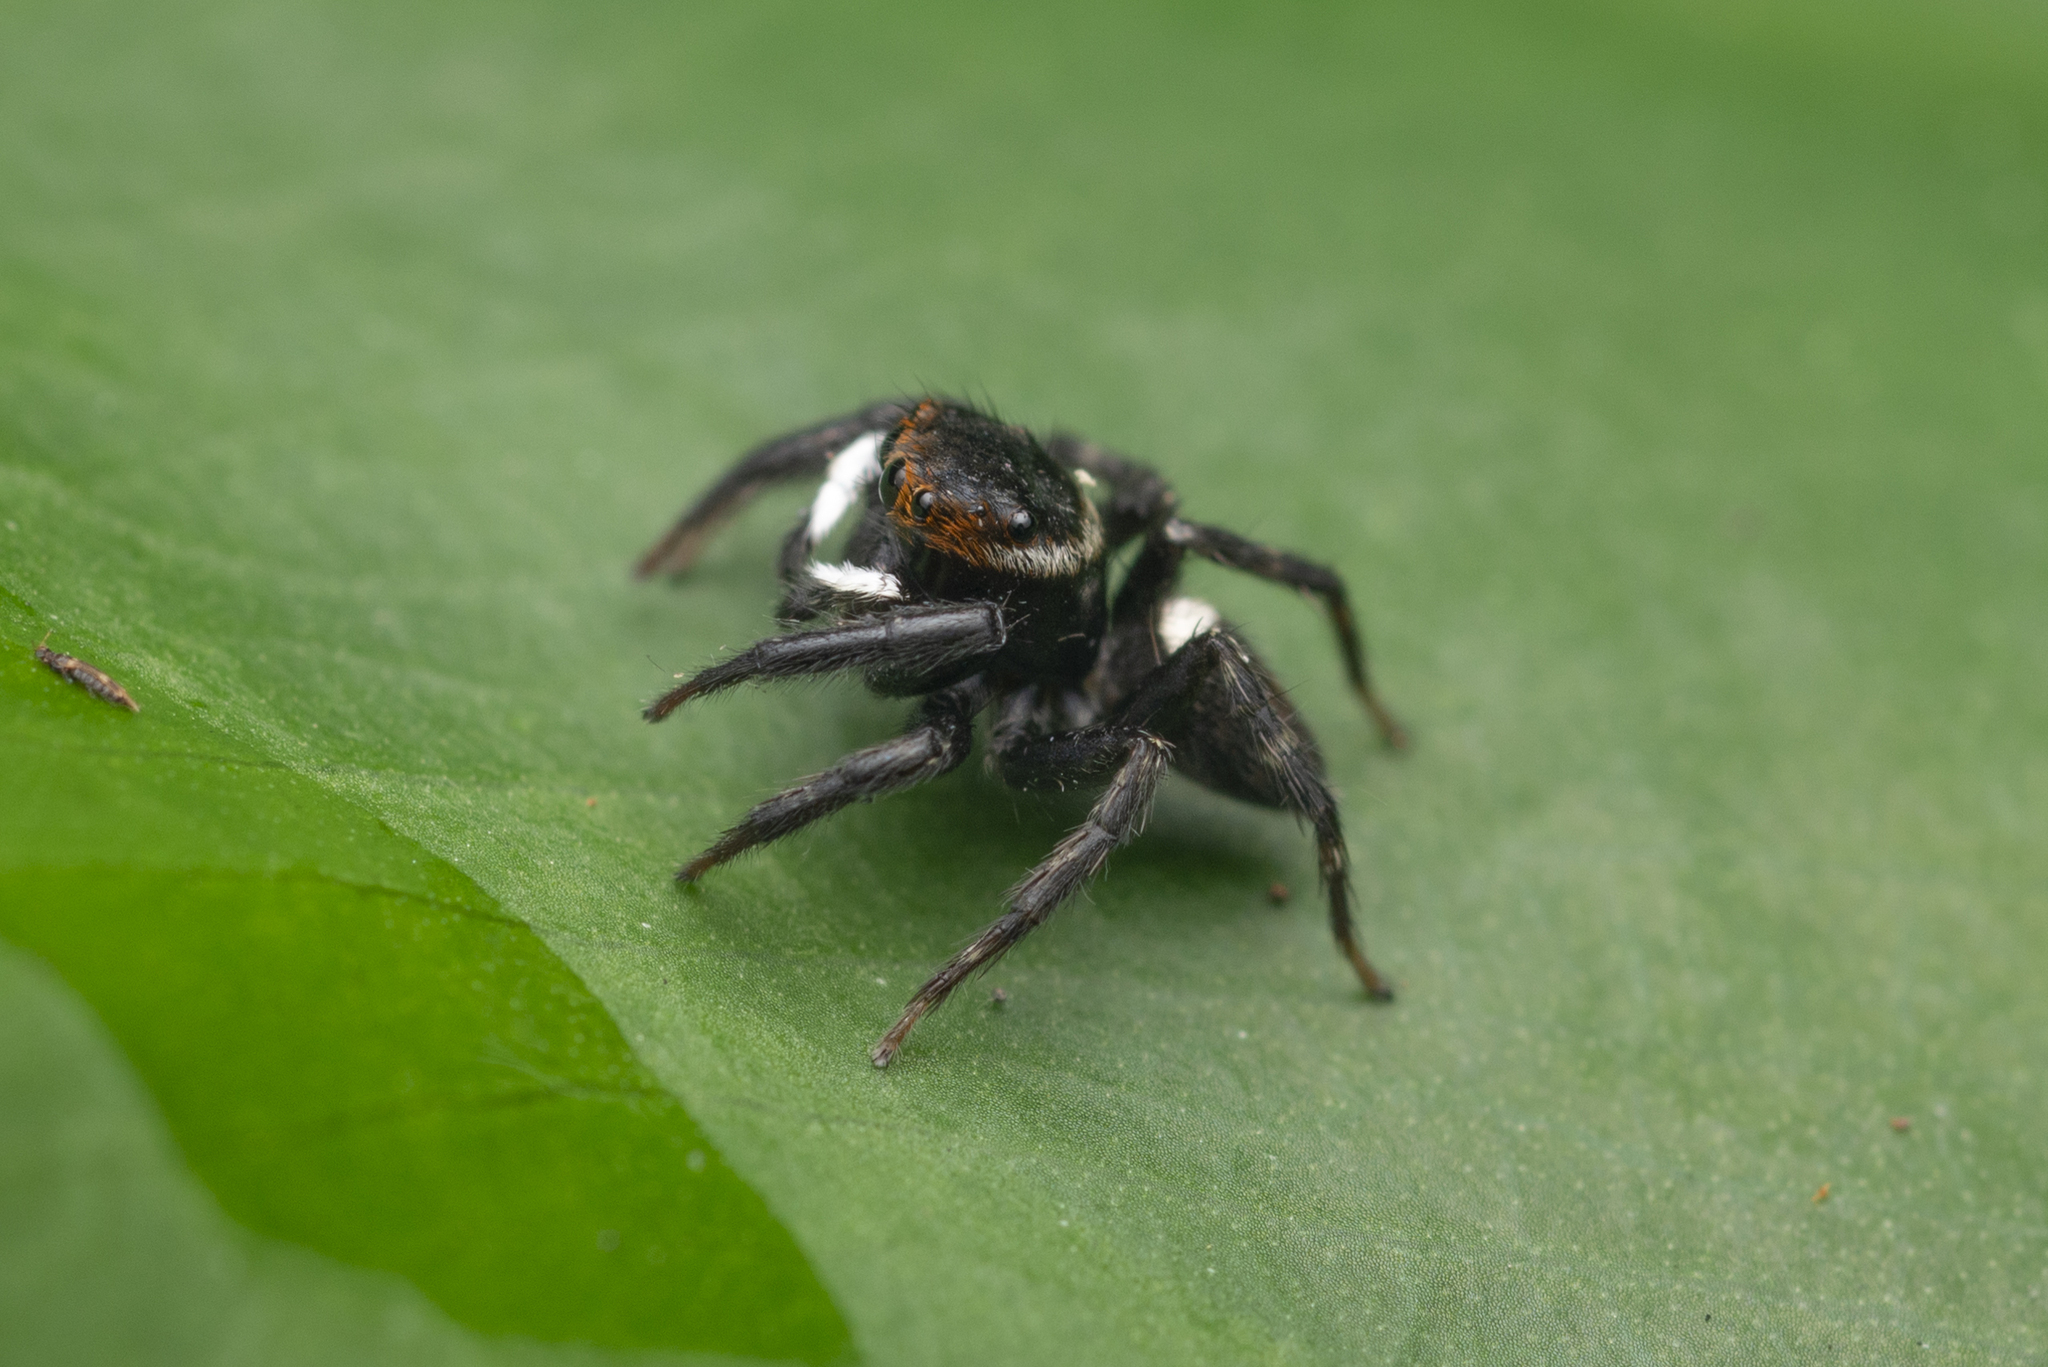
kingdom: Animalia
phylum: Arthropoda
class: Arachnida
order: Araneae
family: Salticidae
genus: Hasarius
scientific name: Hasarius adansoni
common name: Jumping spider
